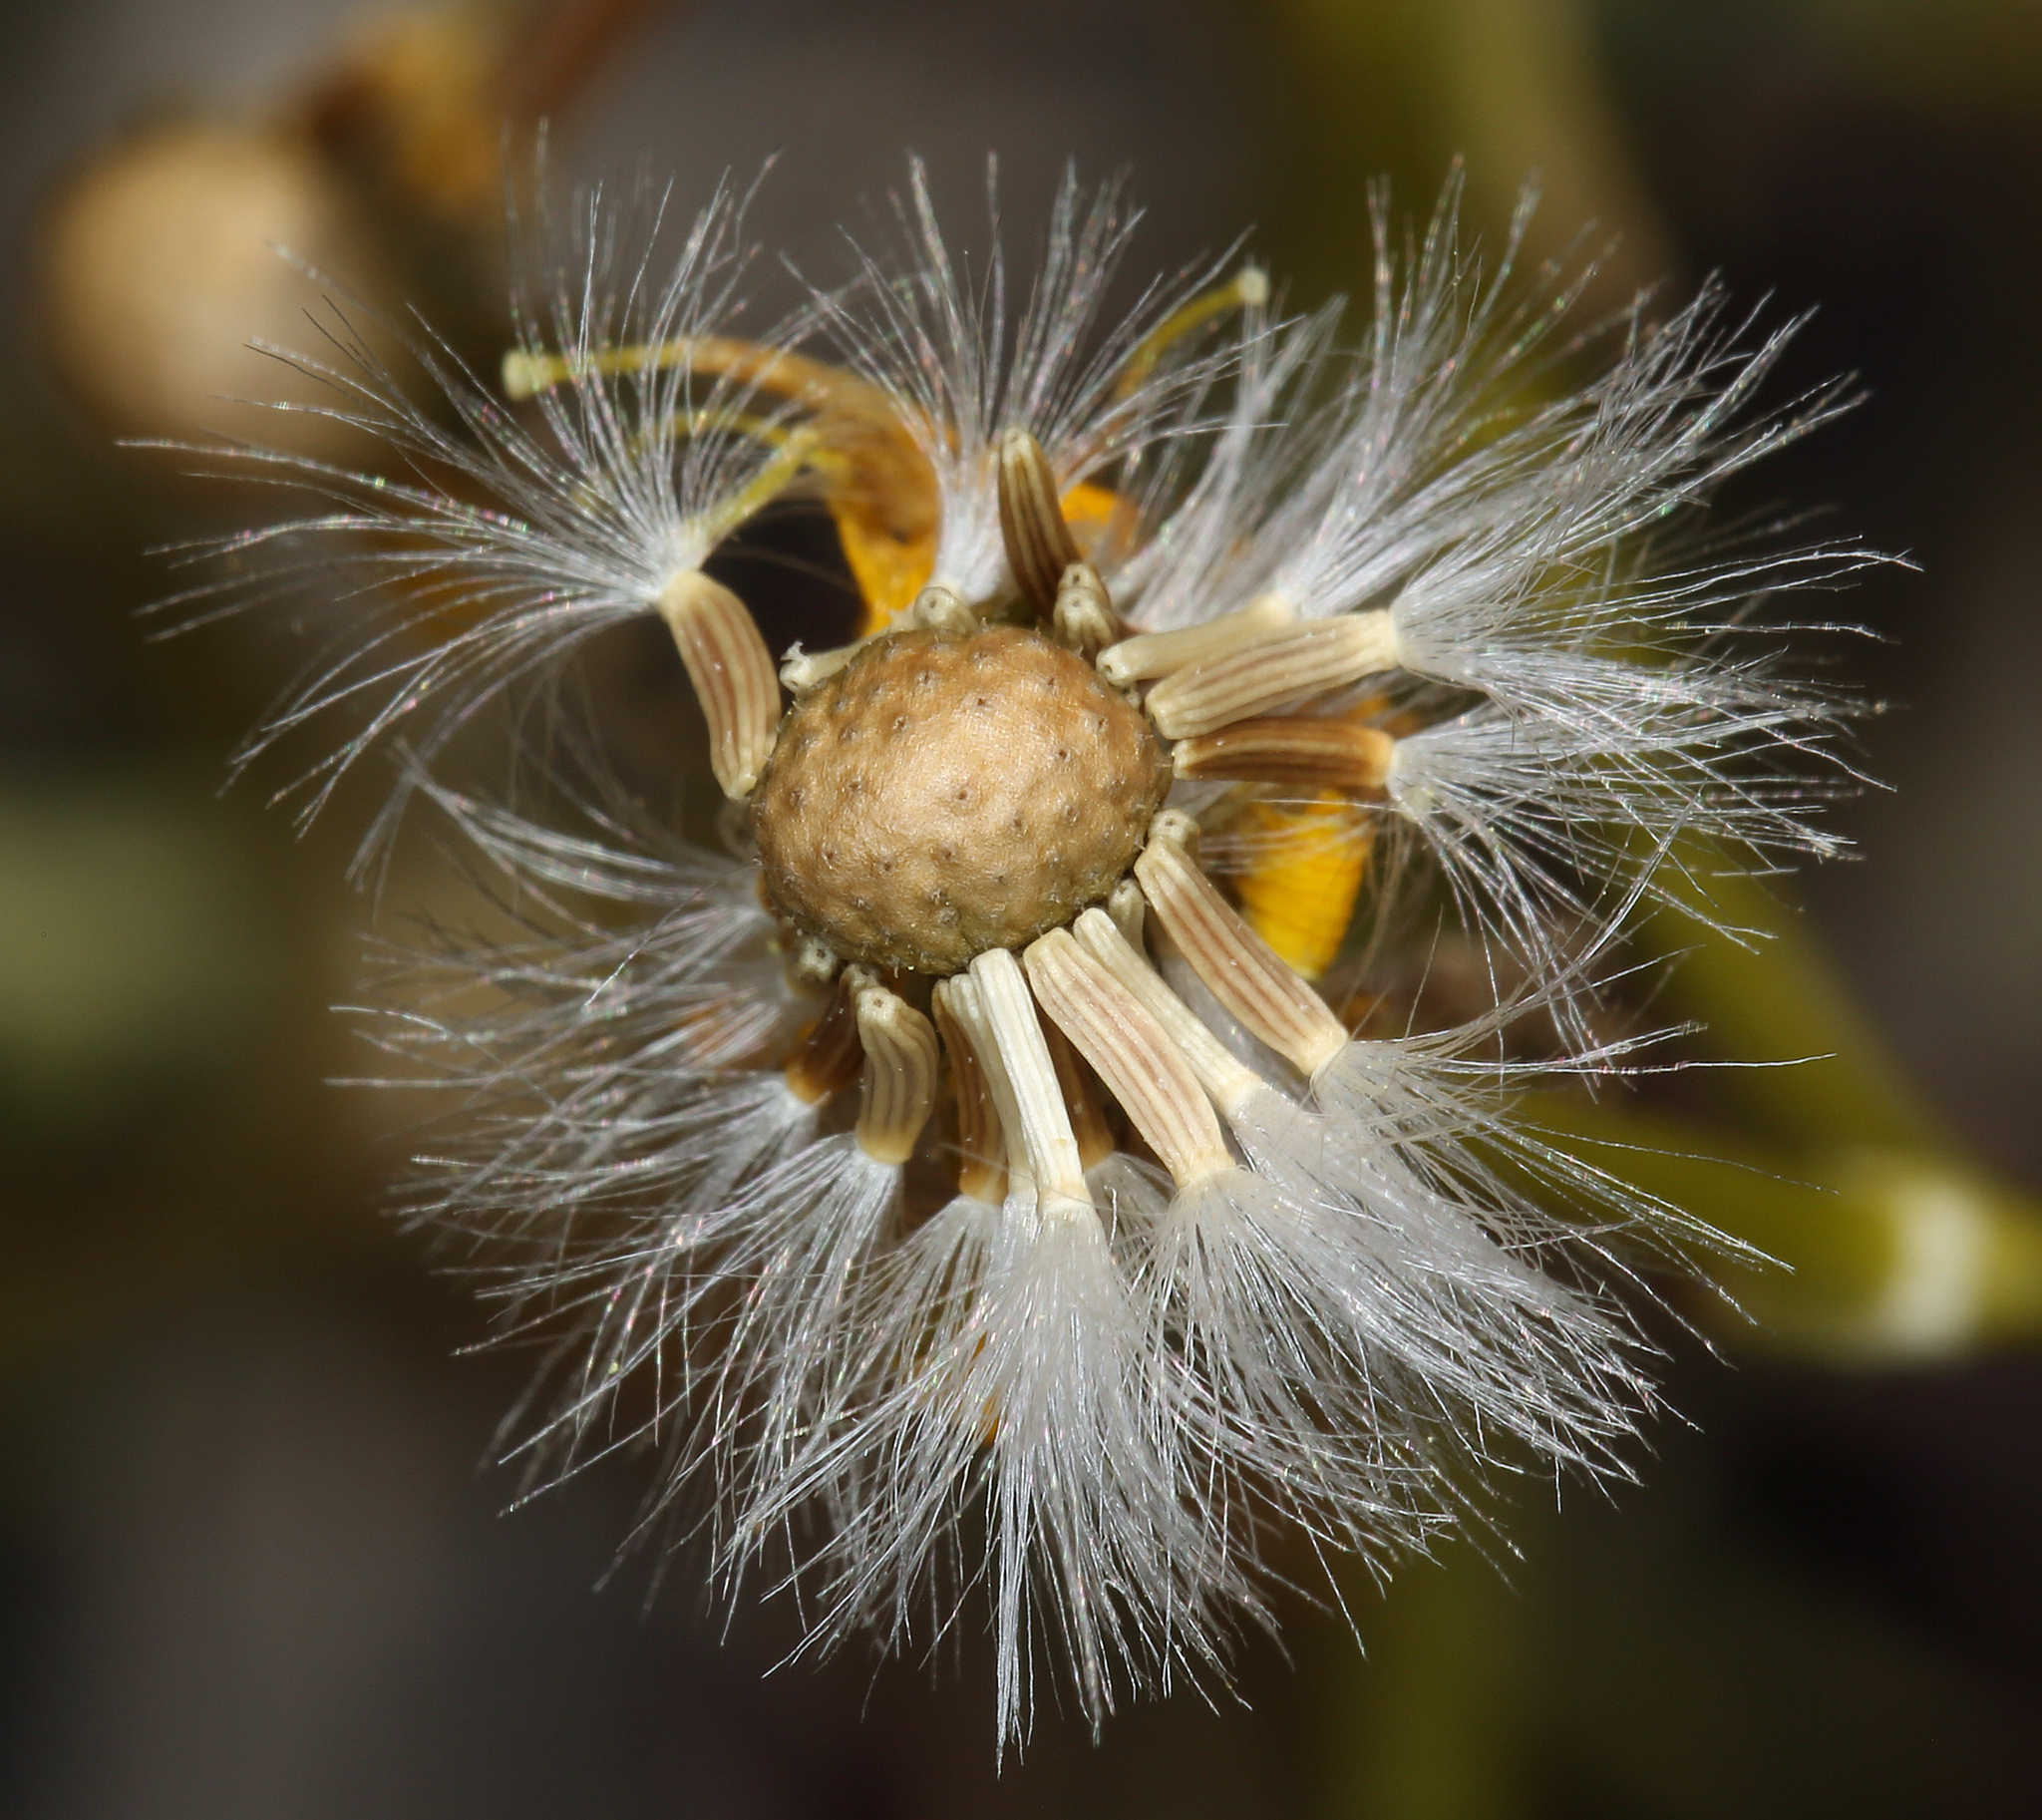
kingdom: Plantae
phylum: Tracheophyta
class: Magnoliopsida
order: Asterales
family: Asteraceae
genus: Packera
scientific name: Packera multilobata
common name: Lobe-leaf groundsel
